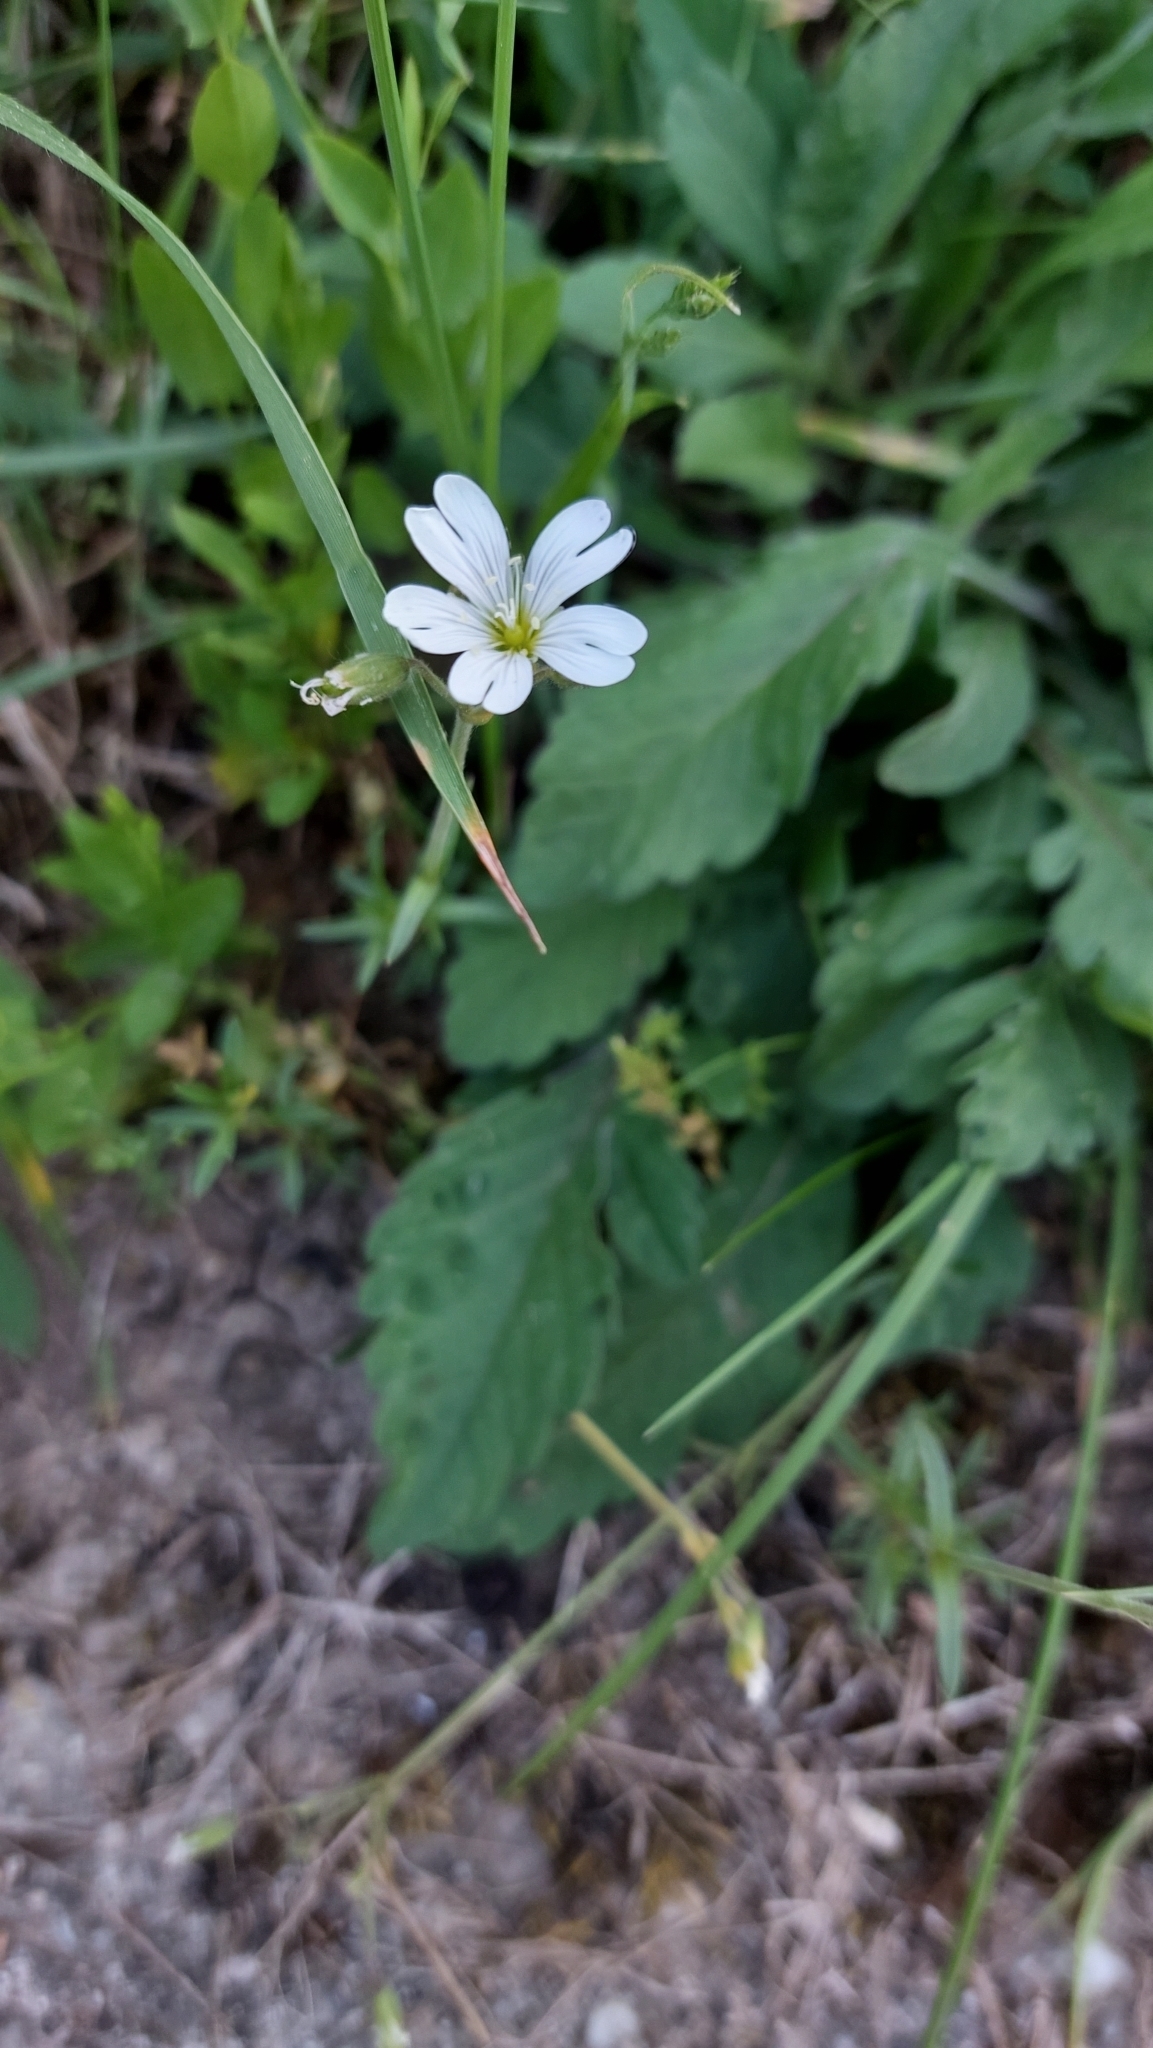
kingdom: Plantae
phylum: Tracheophyta
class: Magnoliopsida
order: Caryophyllales
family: Caryophyllaceae
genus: Cerastium
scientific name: Cerastium arvense
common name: Field mouse-ear
